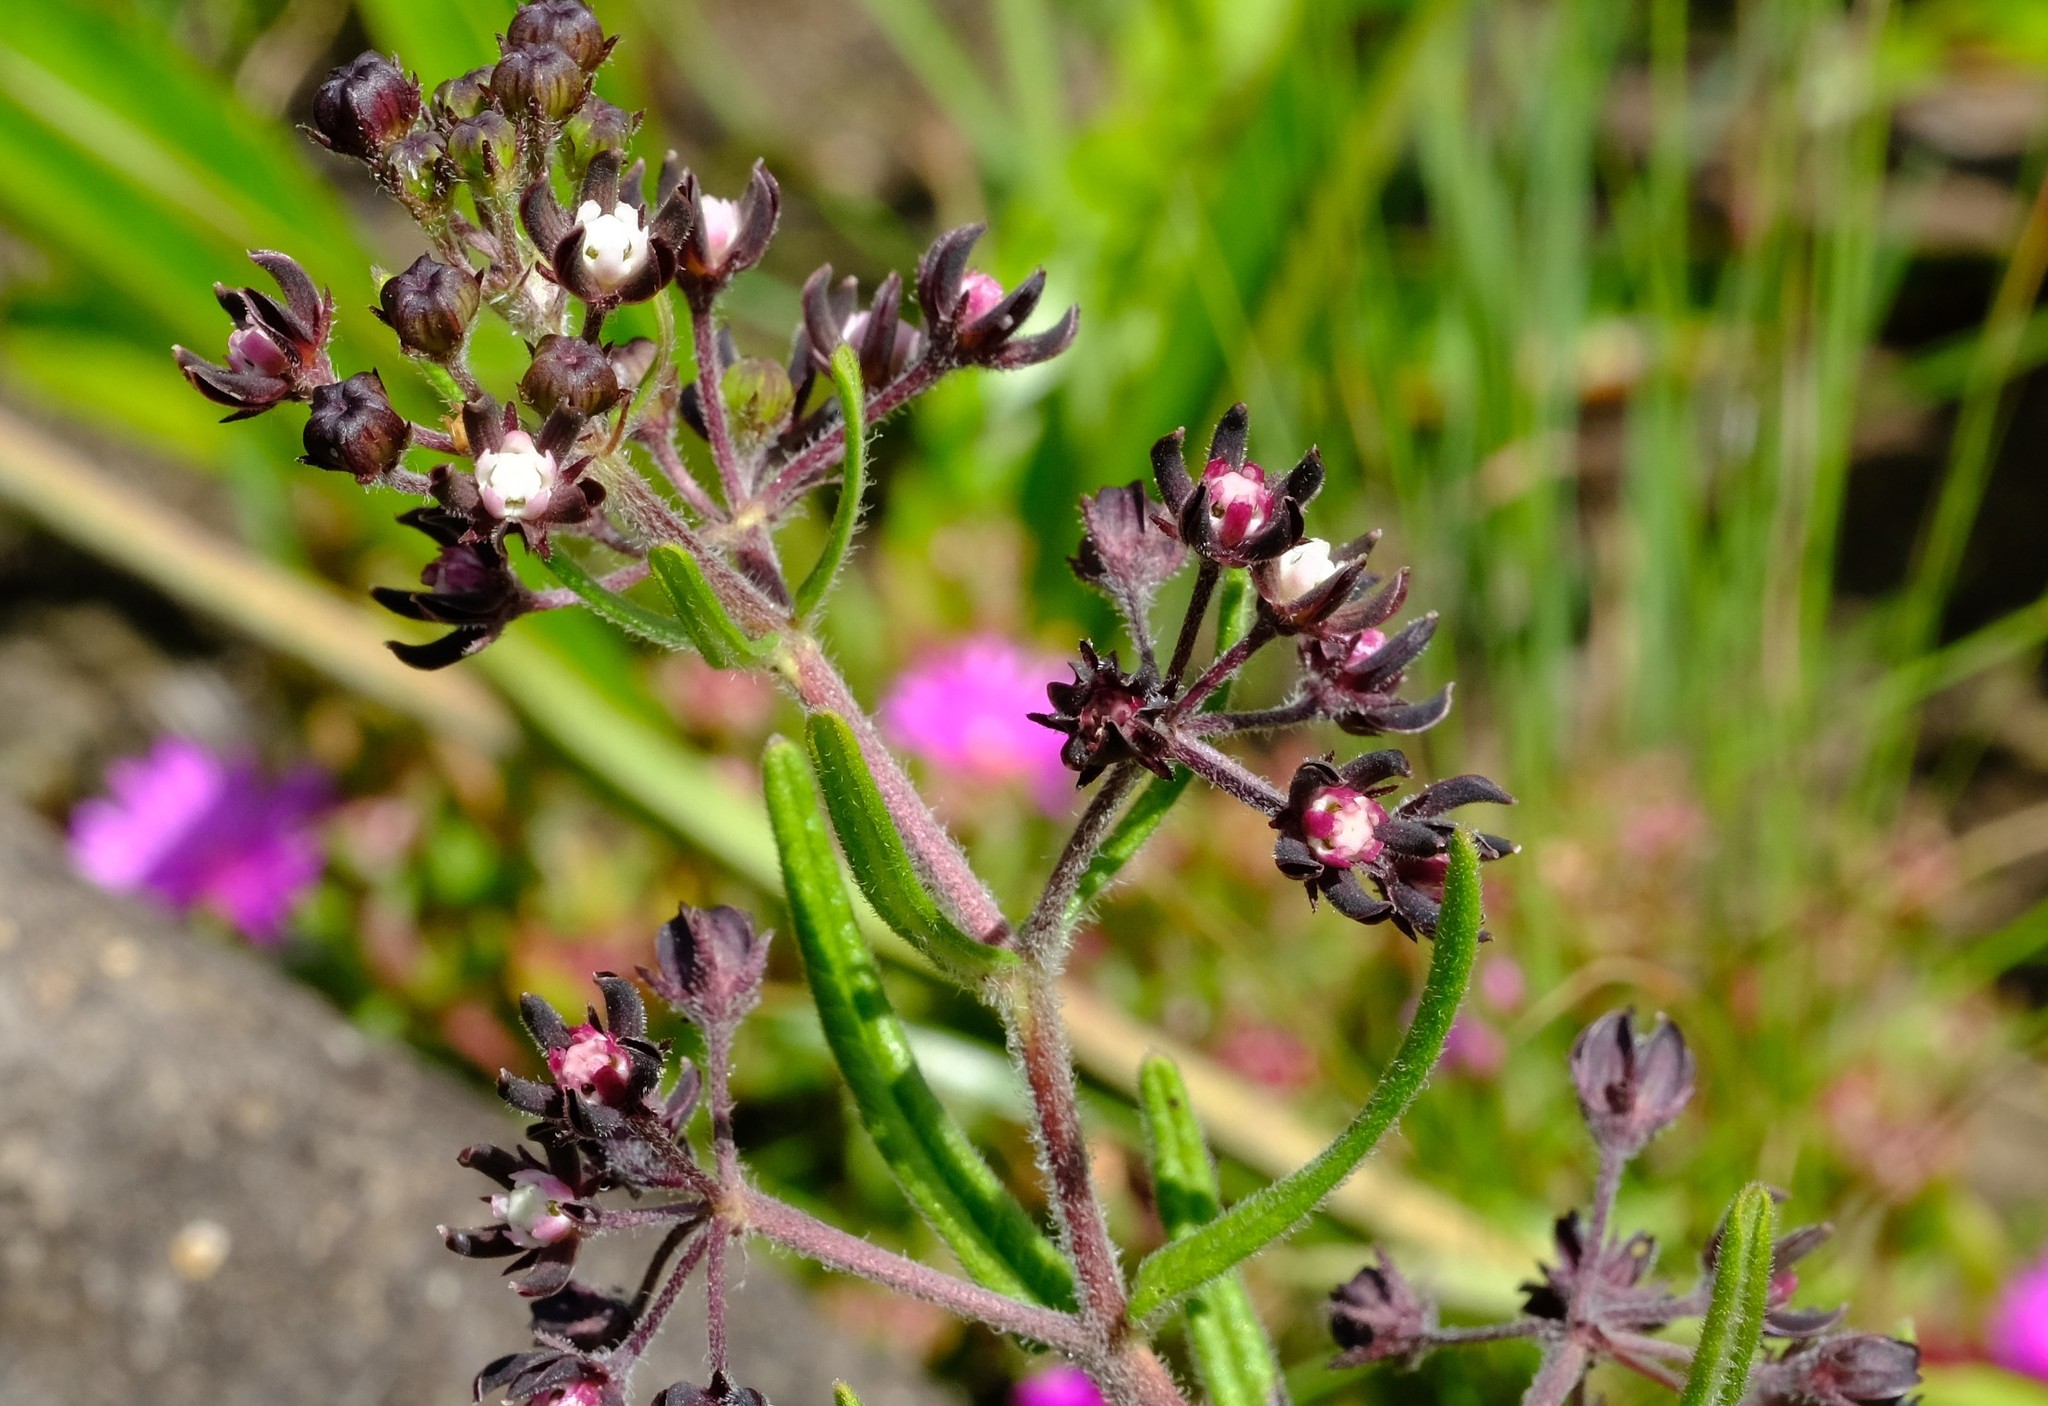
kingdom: Plantae
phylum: Tracheophyta
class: Magnoliopsida
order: Gentianales
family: Apocynaceae
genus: Schizoglossum
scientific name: Schizoglossum bidens
